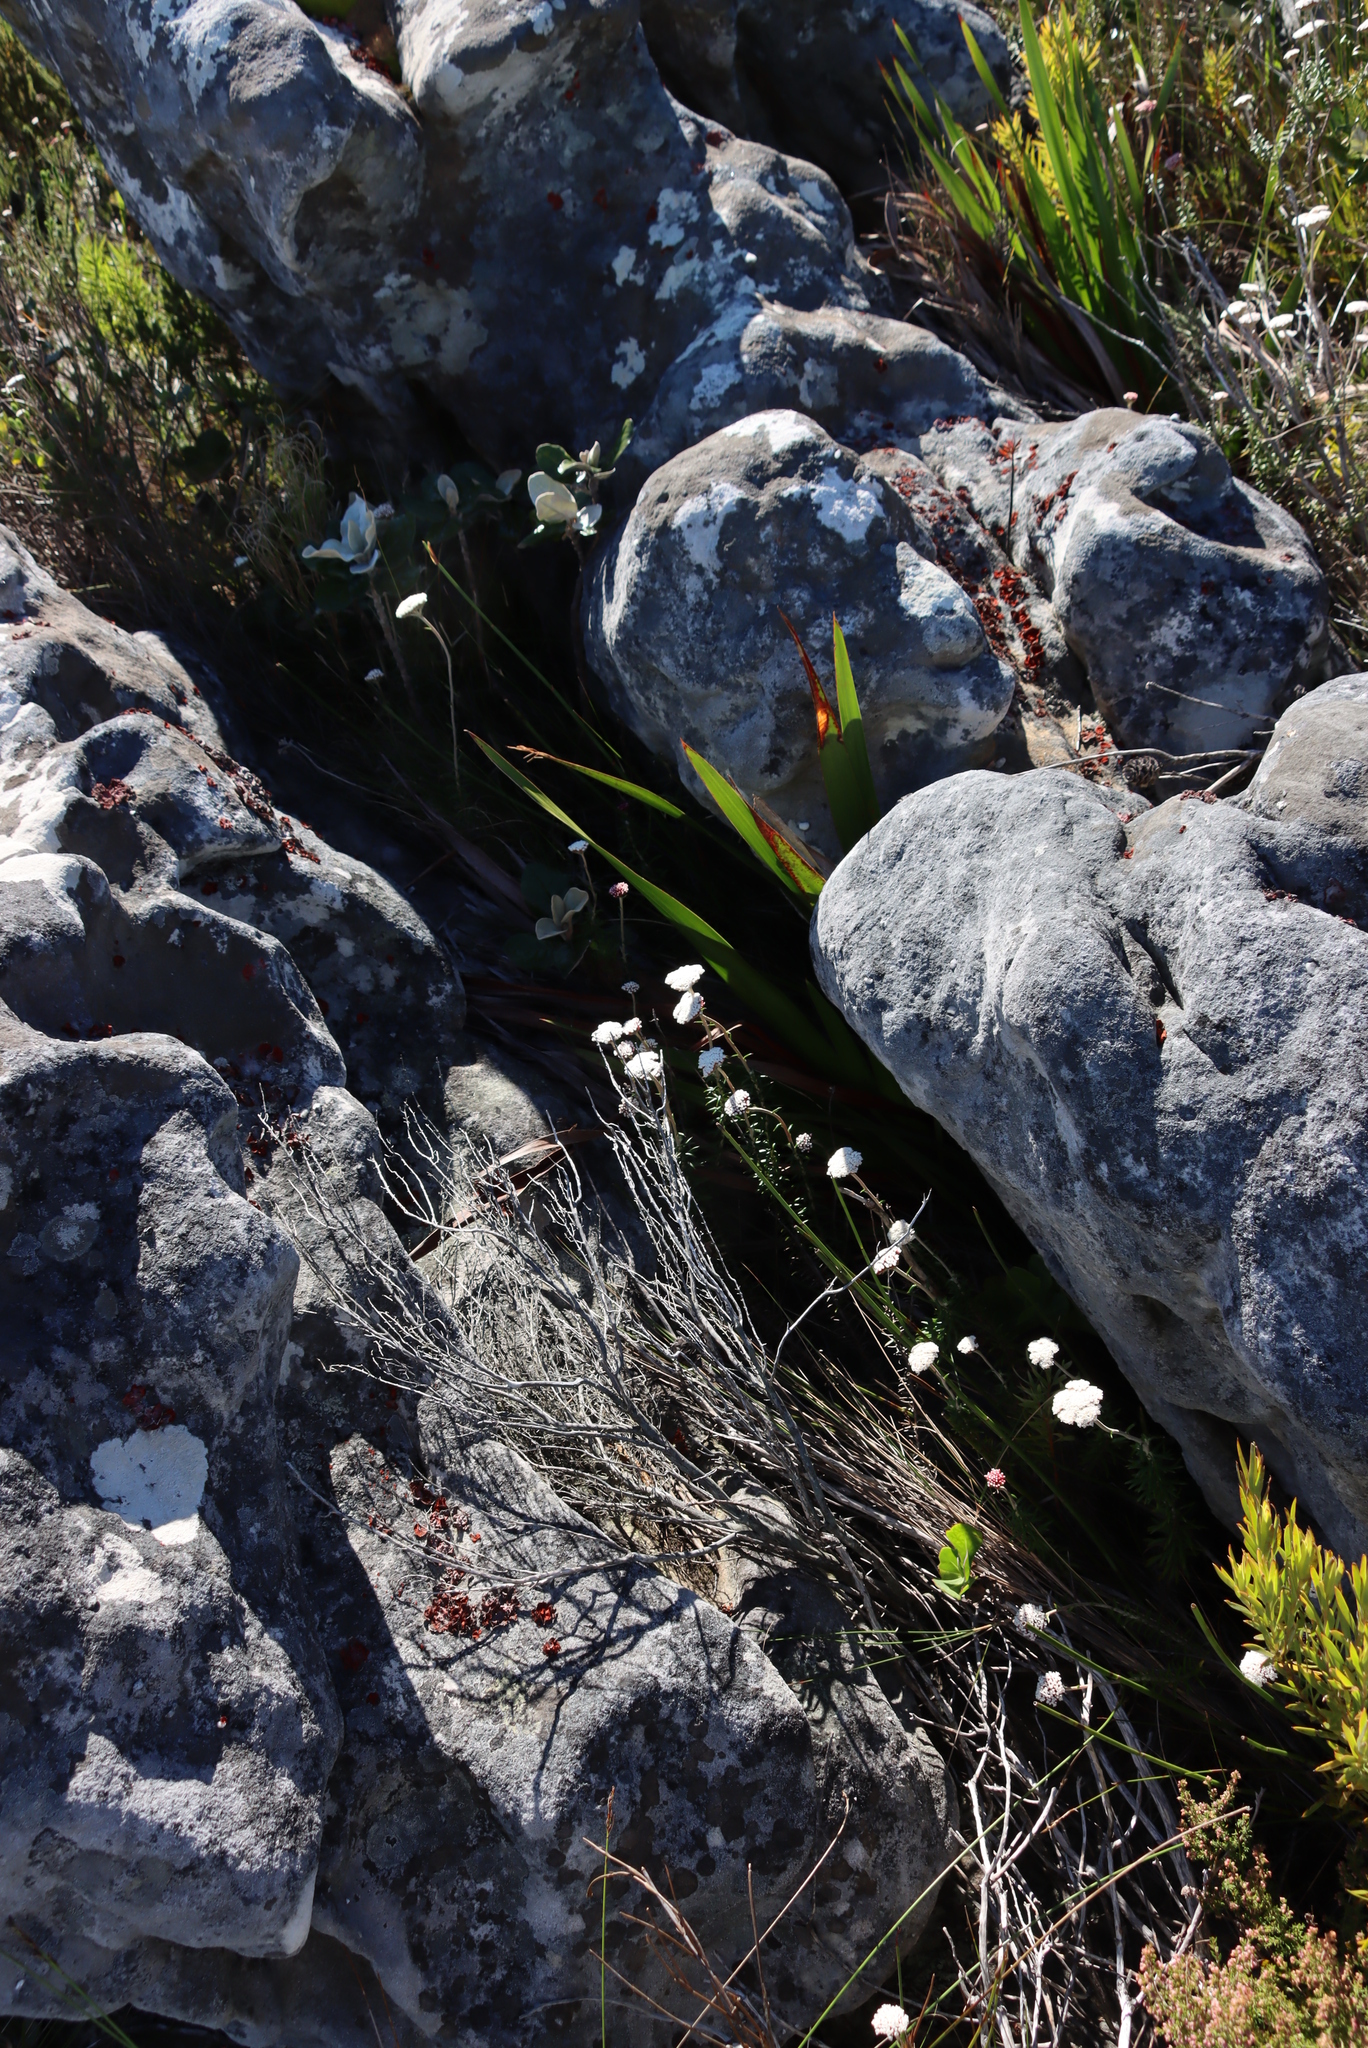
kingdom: Plantae
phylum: Tracheophyta
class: Magnoliopsida
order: Asterales
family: Asteraceae
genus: Anaxeton
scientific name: Anaxeton arborescens
